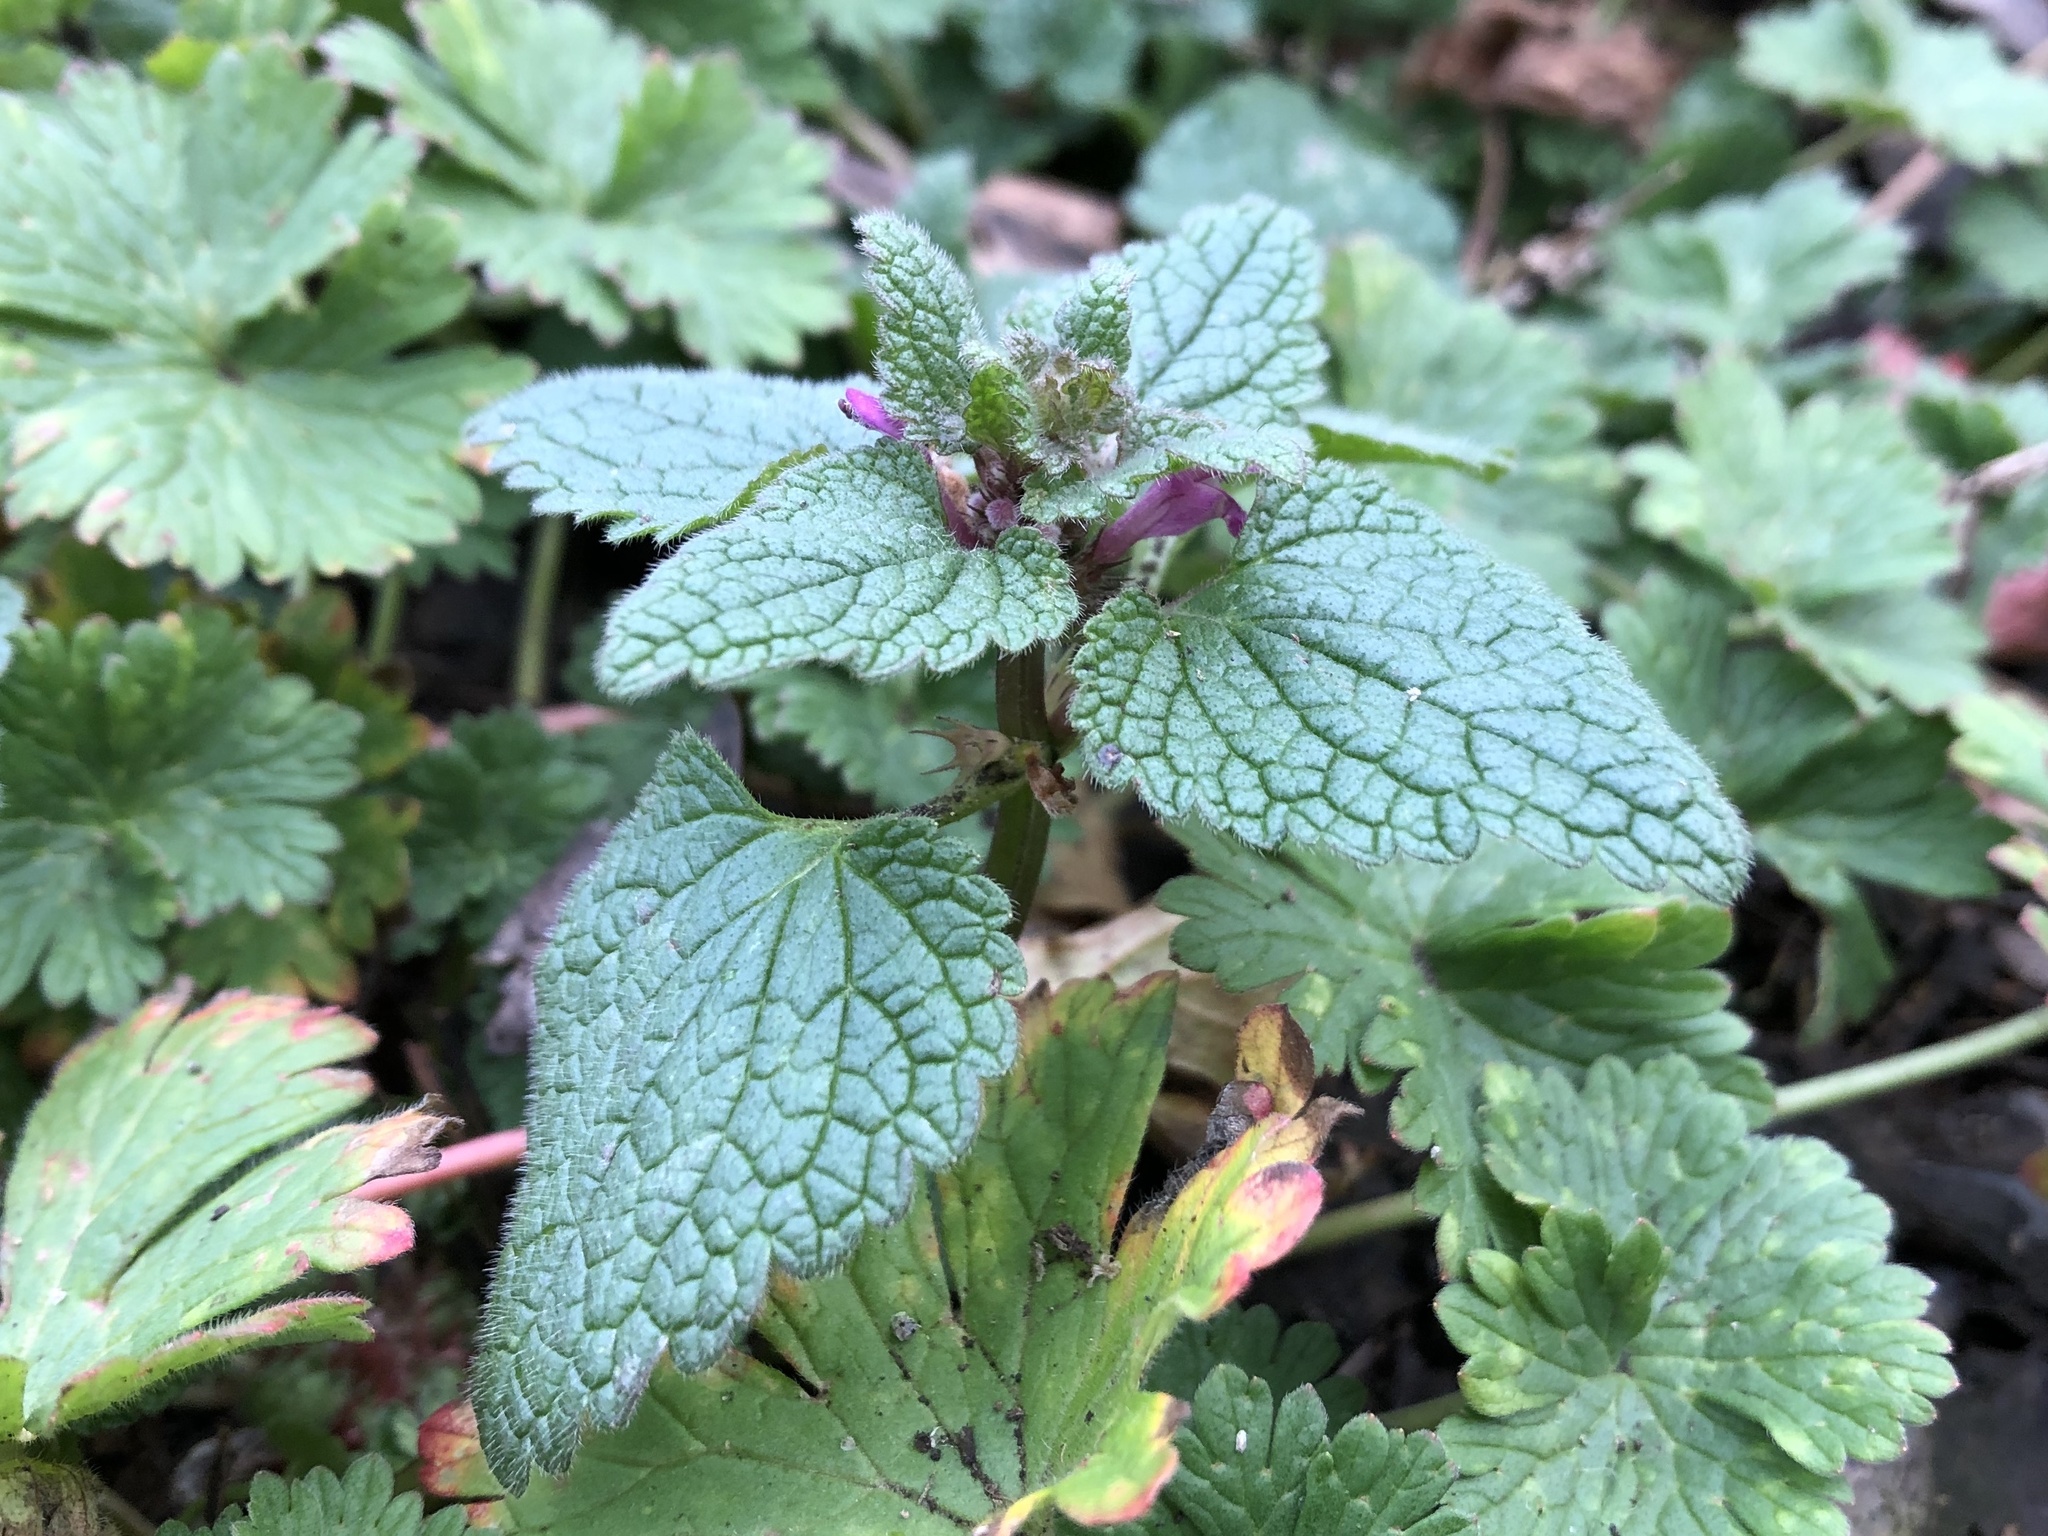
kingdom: Plantae
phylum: Tracheophyta
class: Magnoliopsida
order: Lamiales
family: Lamiaceae
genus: Lamium
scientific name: Lamium purpureum
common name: Red dead-nettle
